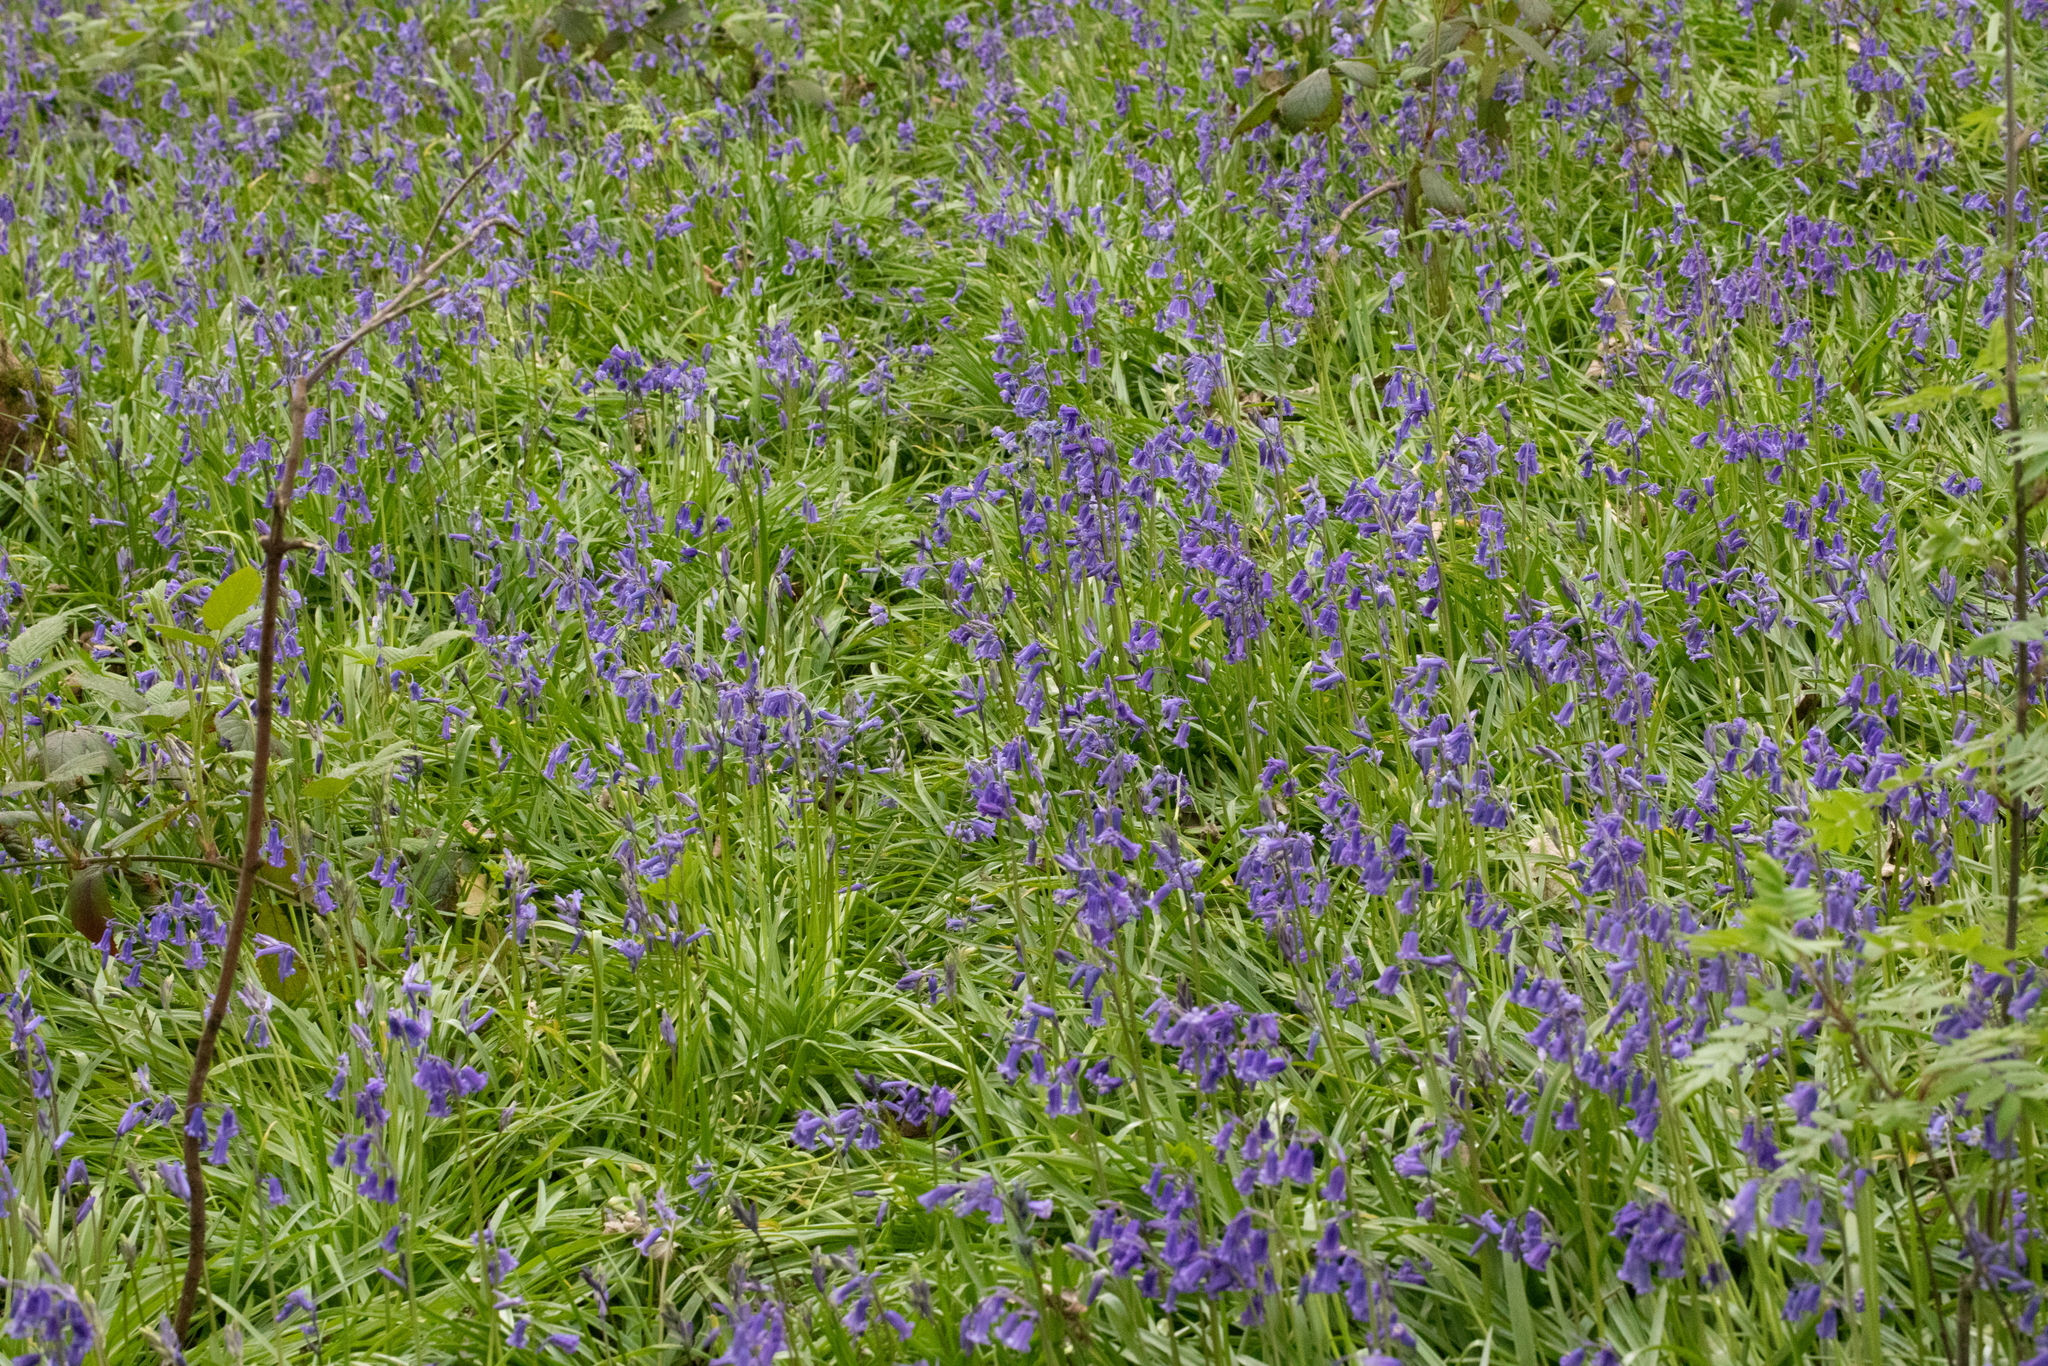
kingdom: Plantae
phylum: Tracheophyta
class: Liliopsida
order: Asparagales
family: Asparagaceae
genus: Hyacinthoides
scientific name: Hyacinthoides non-scripta
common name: Bluebell
